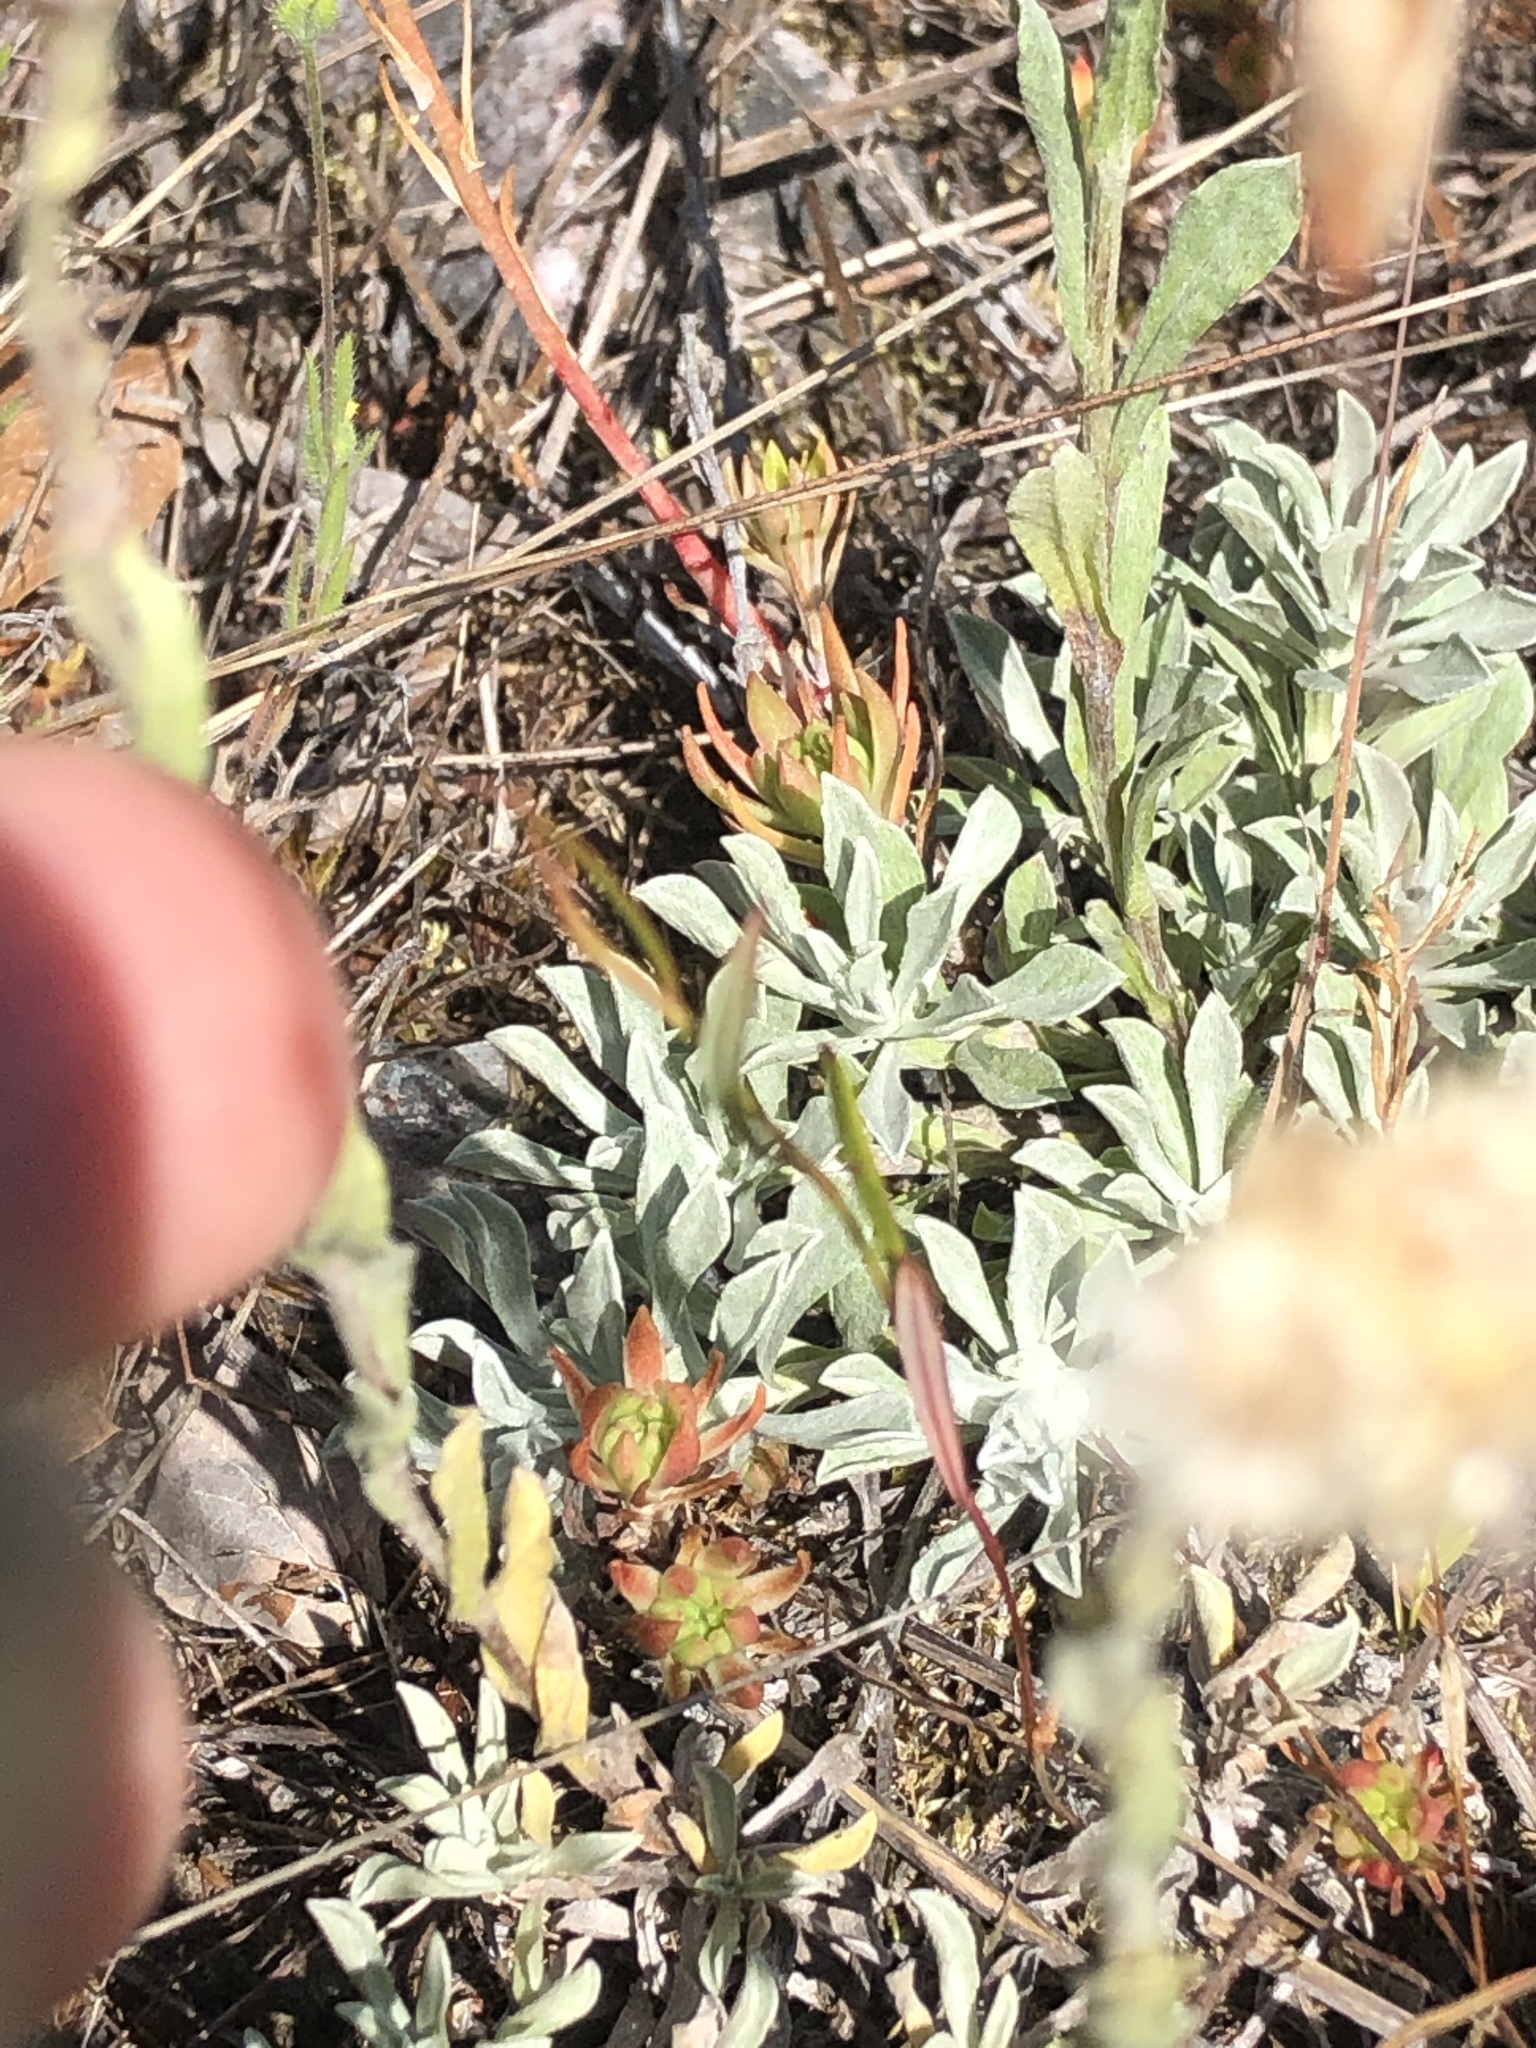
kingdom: Plantae
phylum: Tracheophyta
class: Magnoliopsida
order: Asterales
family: Asteraceae
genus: Antennaria
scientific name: Antennaria rosea
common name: Rosy pussytoes
